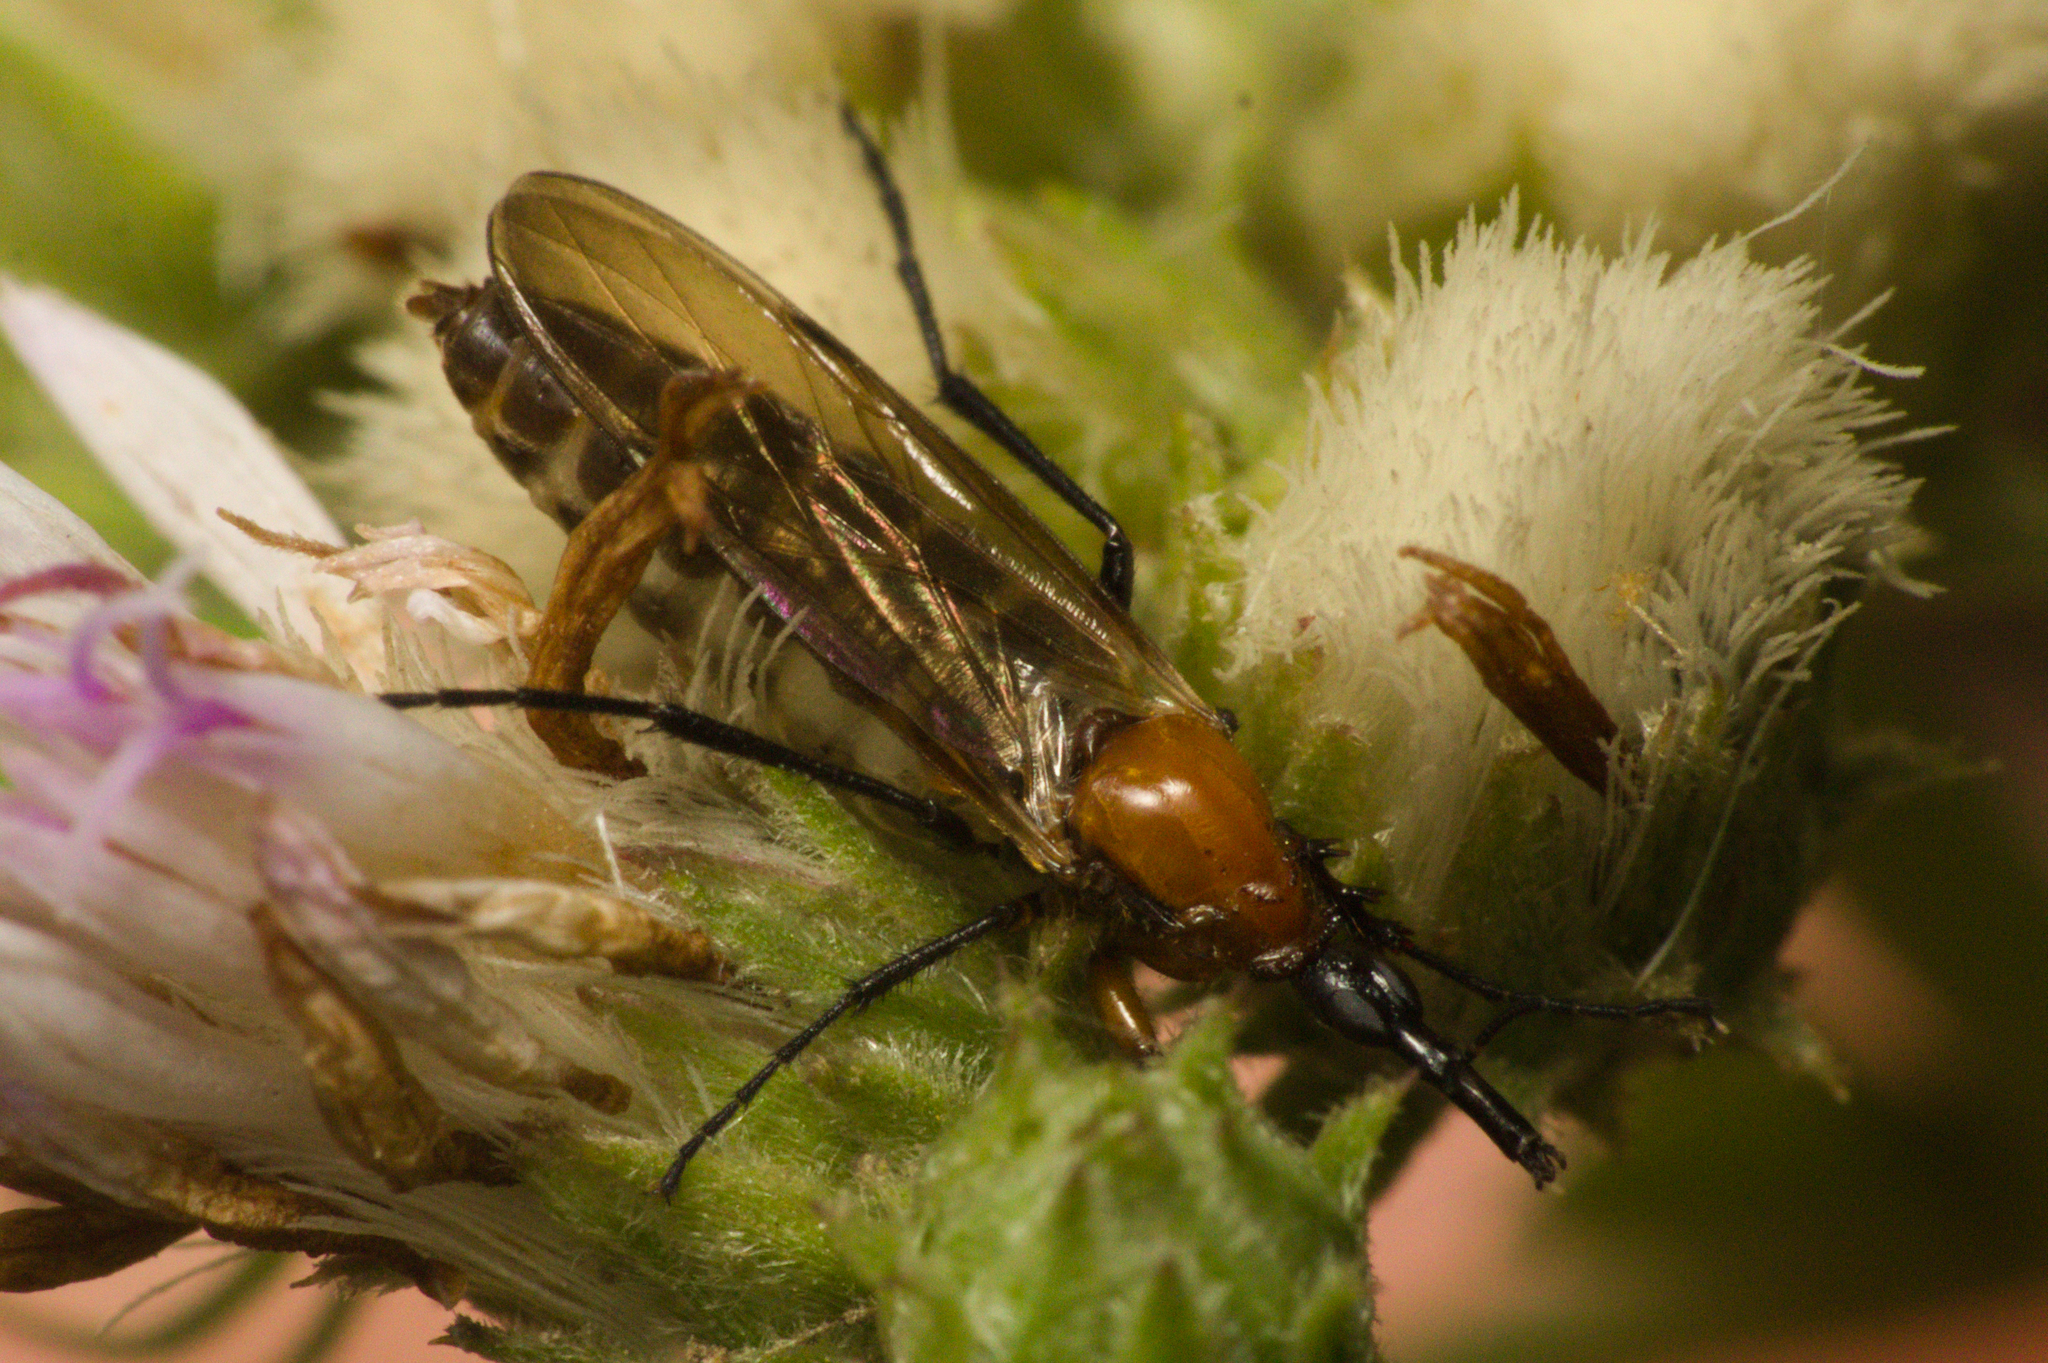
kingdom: Animalia
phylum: Arthropoda
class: Insecta
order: Diptera
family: Bibionidae
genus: Dilophus
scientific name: Dilophus bicoloripes
